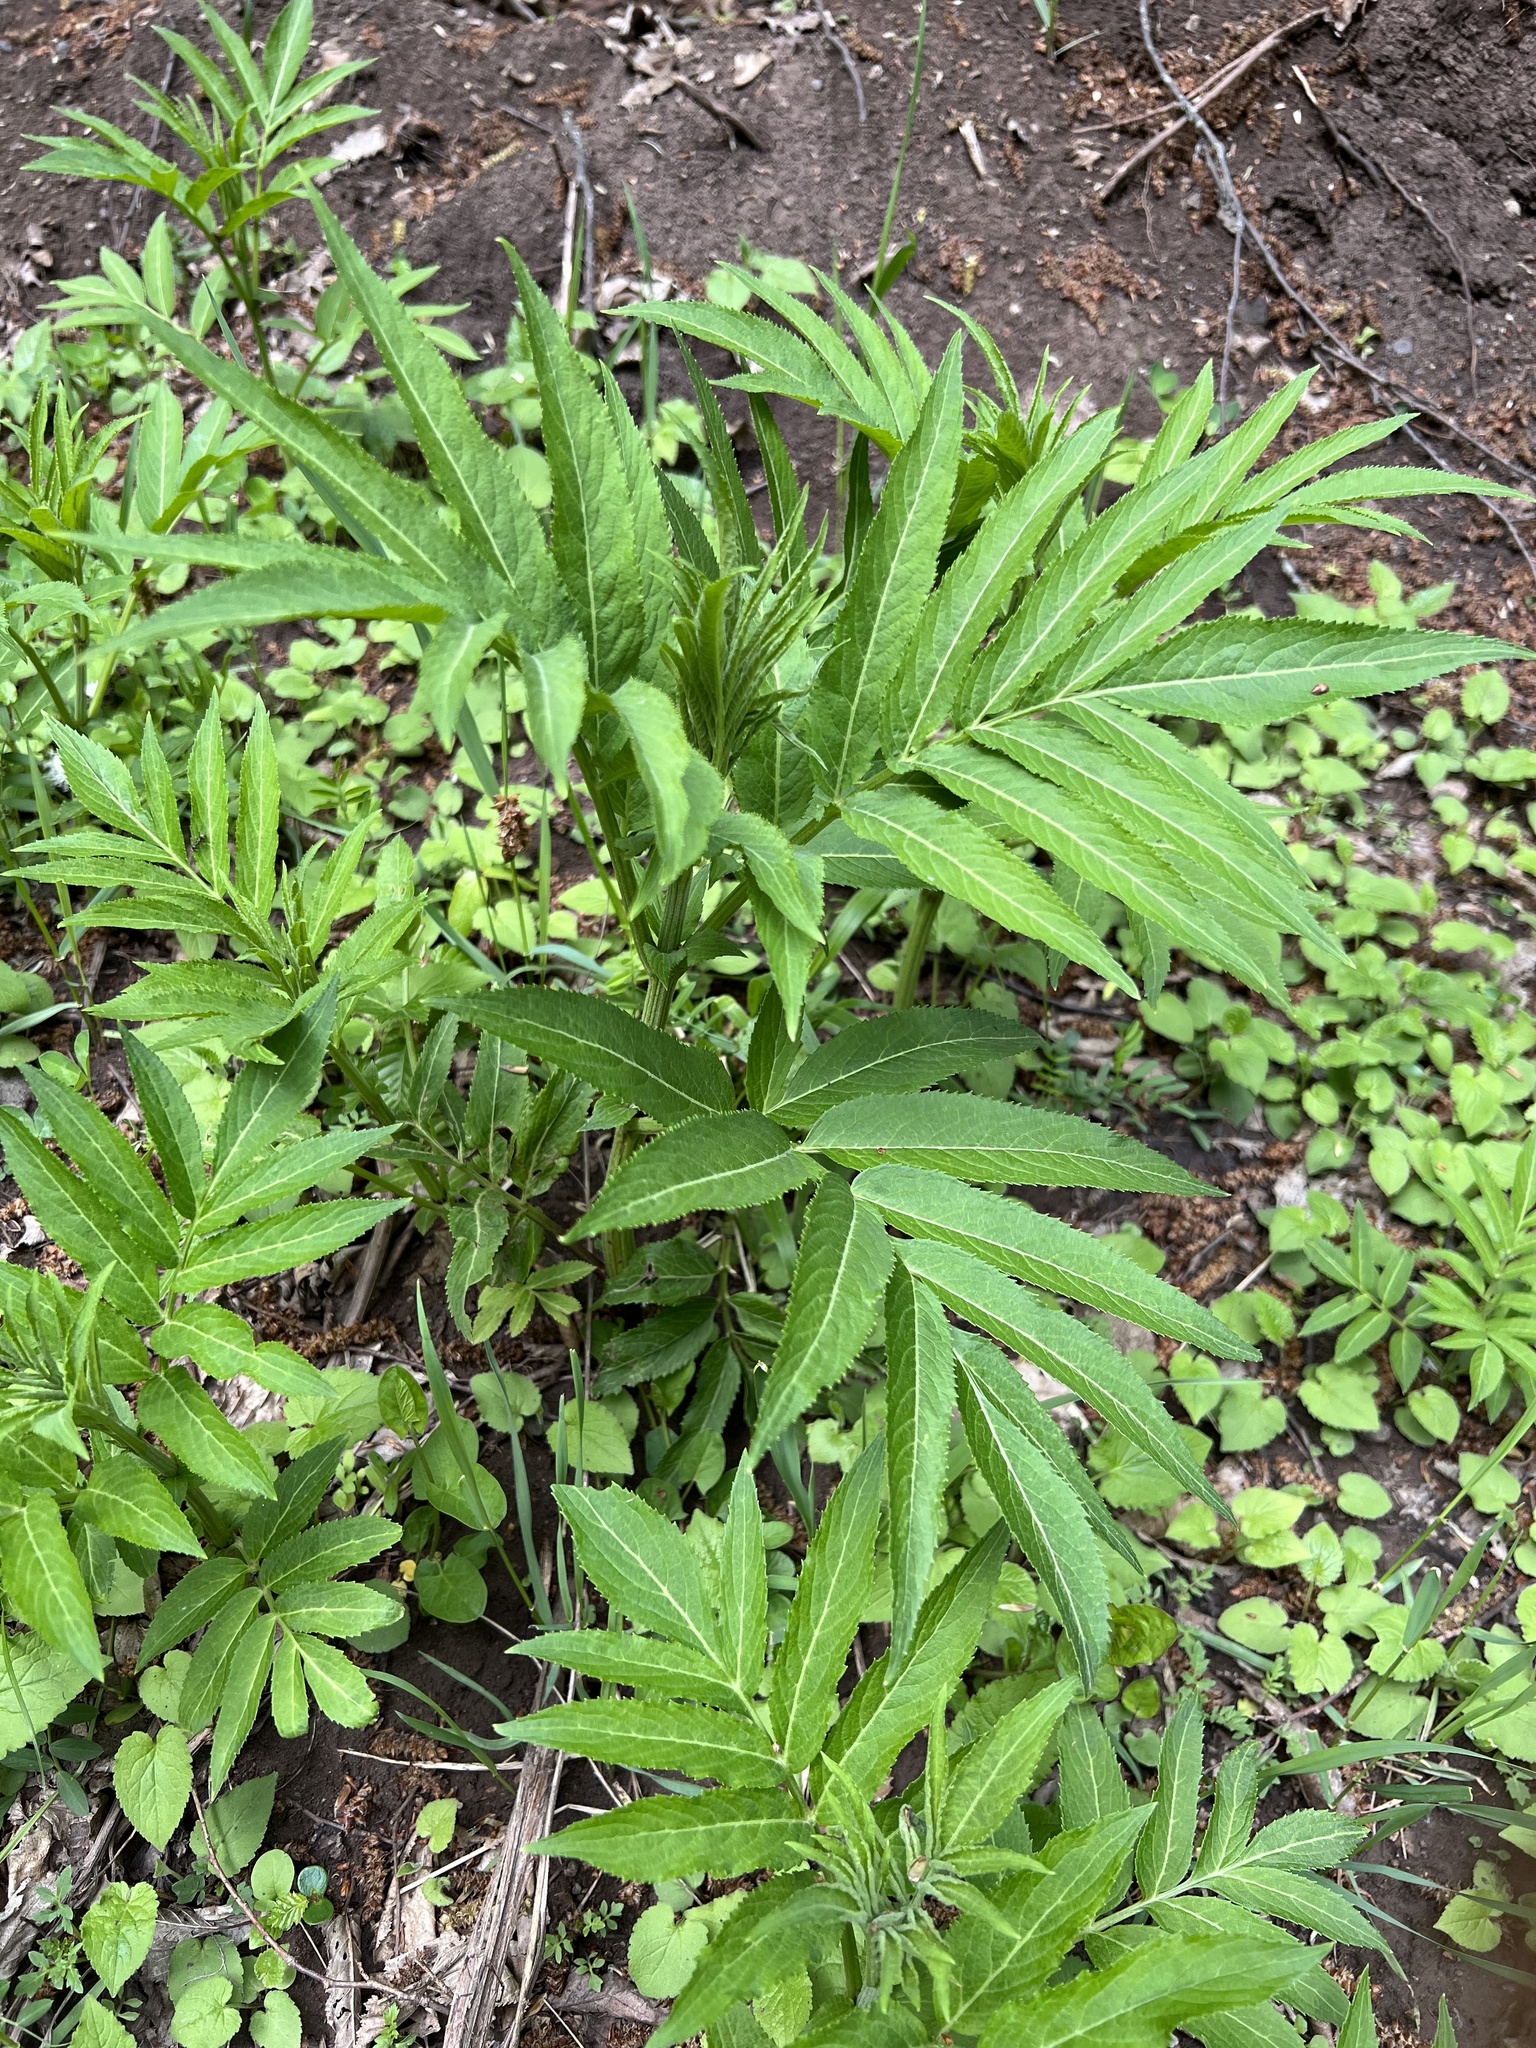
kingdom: Plantae
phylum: Tracheophyta
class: Magnoliopsida
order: Dipsacales
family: Viburnaceae
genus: Sambucus
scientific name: Sambucus ebulus
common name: Dwarf elder
